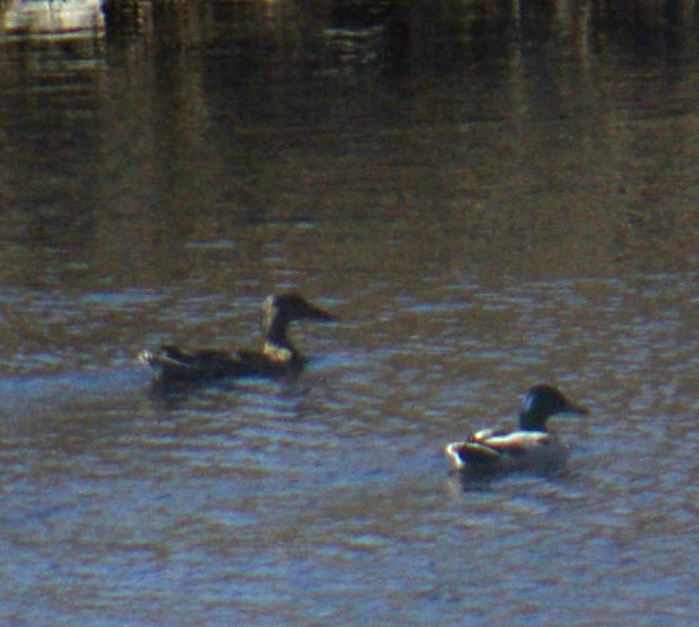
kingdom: Animalia
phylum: Chordata
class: Aves
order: Anseriformes
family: Anatidae
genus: Anas
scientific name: Anas platyrhynchos
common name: Mallard
